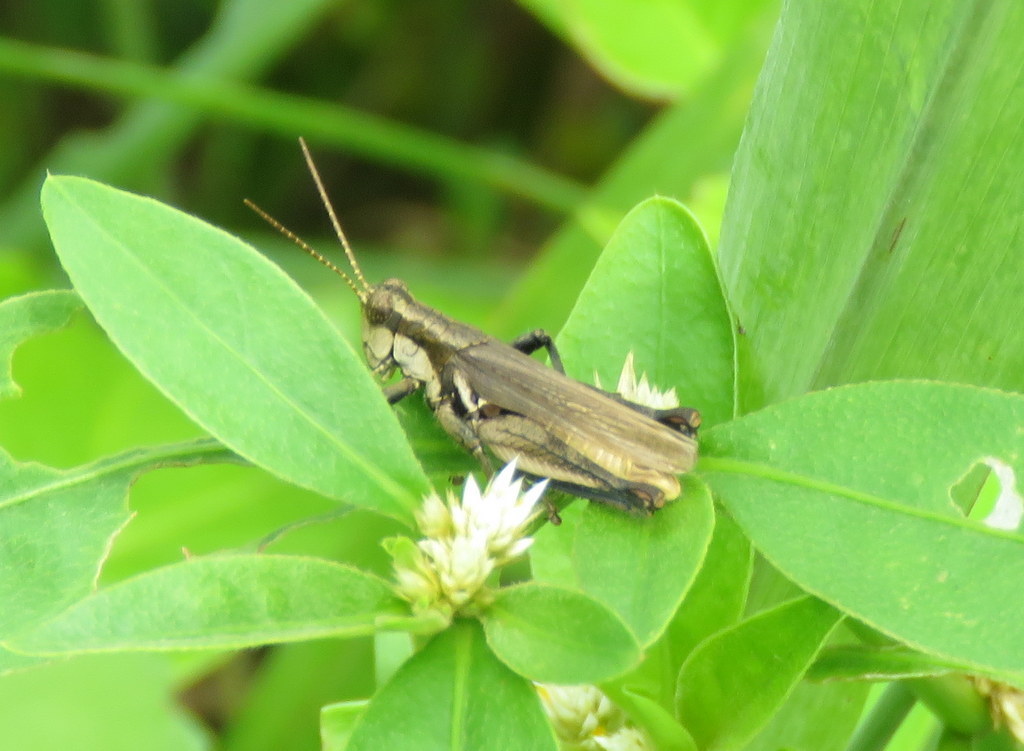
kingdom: Animalia
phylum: Arthropoda
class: Insecta
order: Orthoptera
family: Acrididae
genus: Ronderosia
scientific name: Ronderosia bergii
